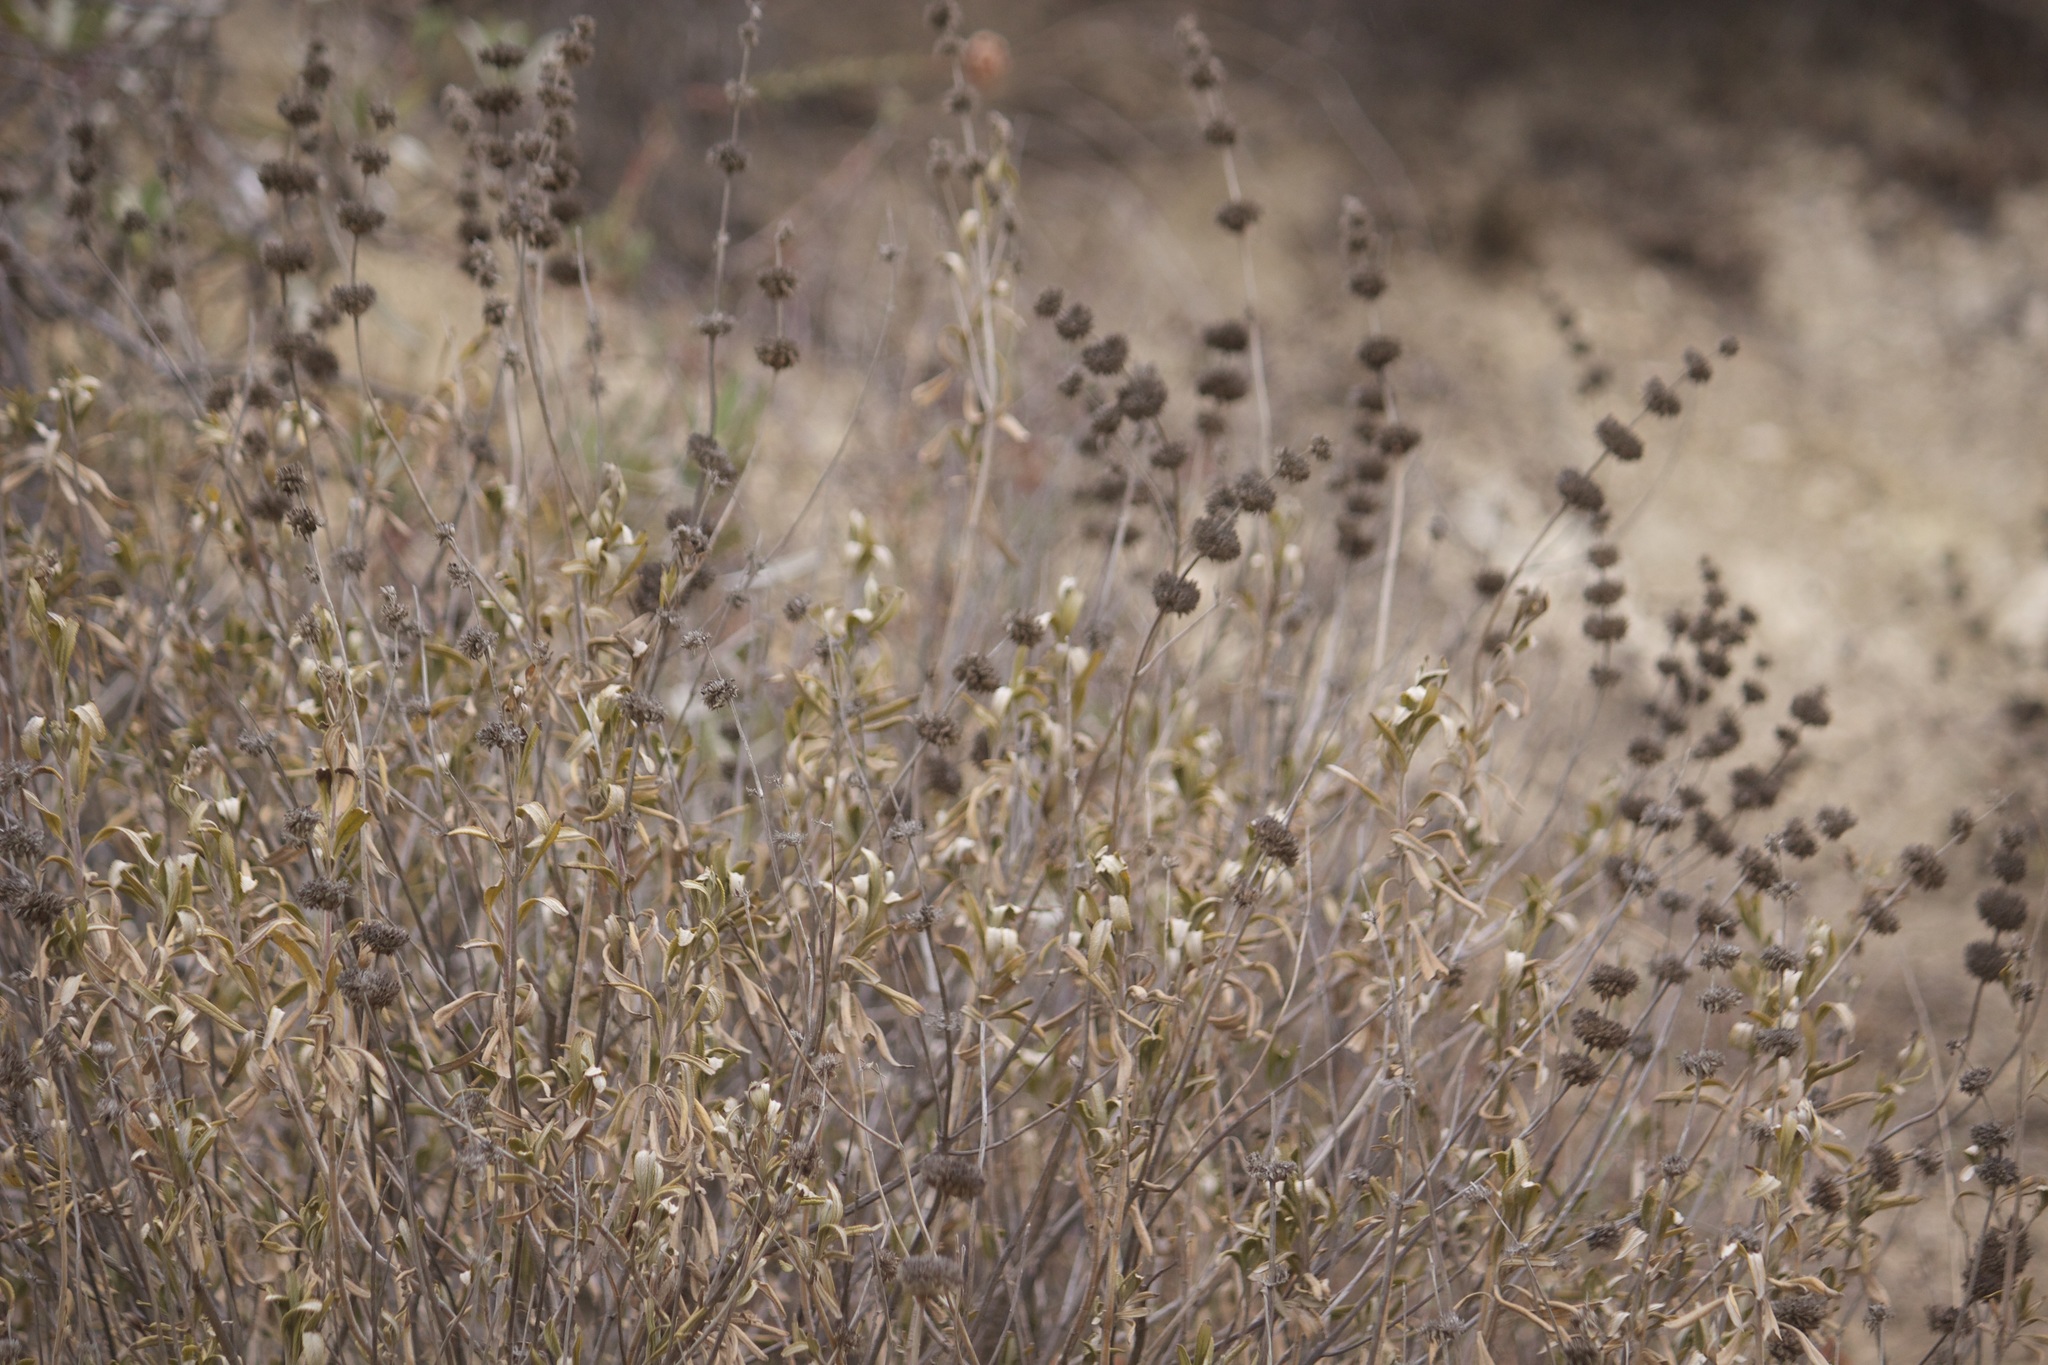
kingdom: Plantae
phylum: Tracheophyta
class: Magnoliopsida
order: Lamiales
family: Lamiaceae
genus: Salvia
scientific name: Salvia mellifera
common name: Black sage
